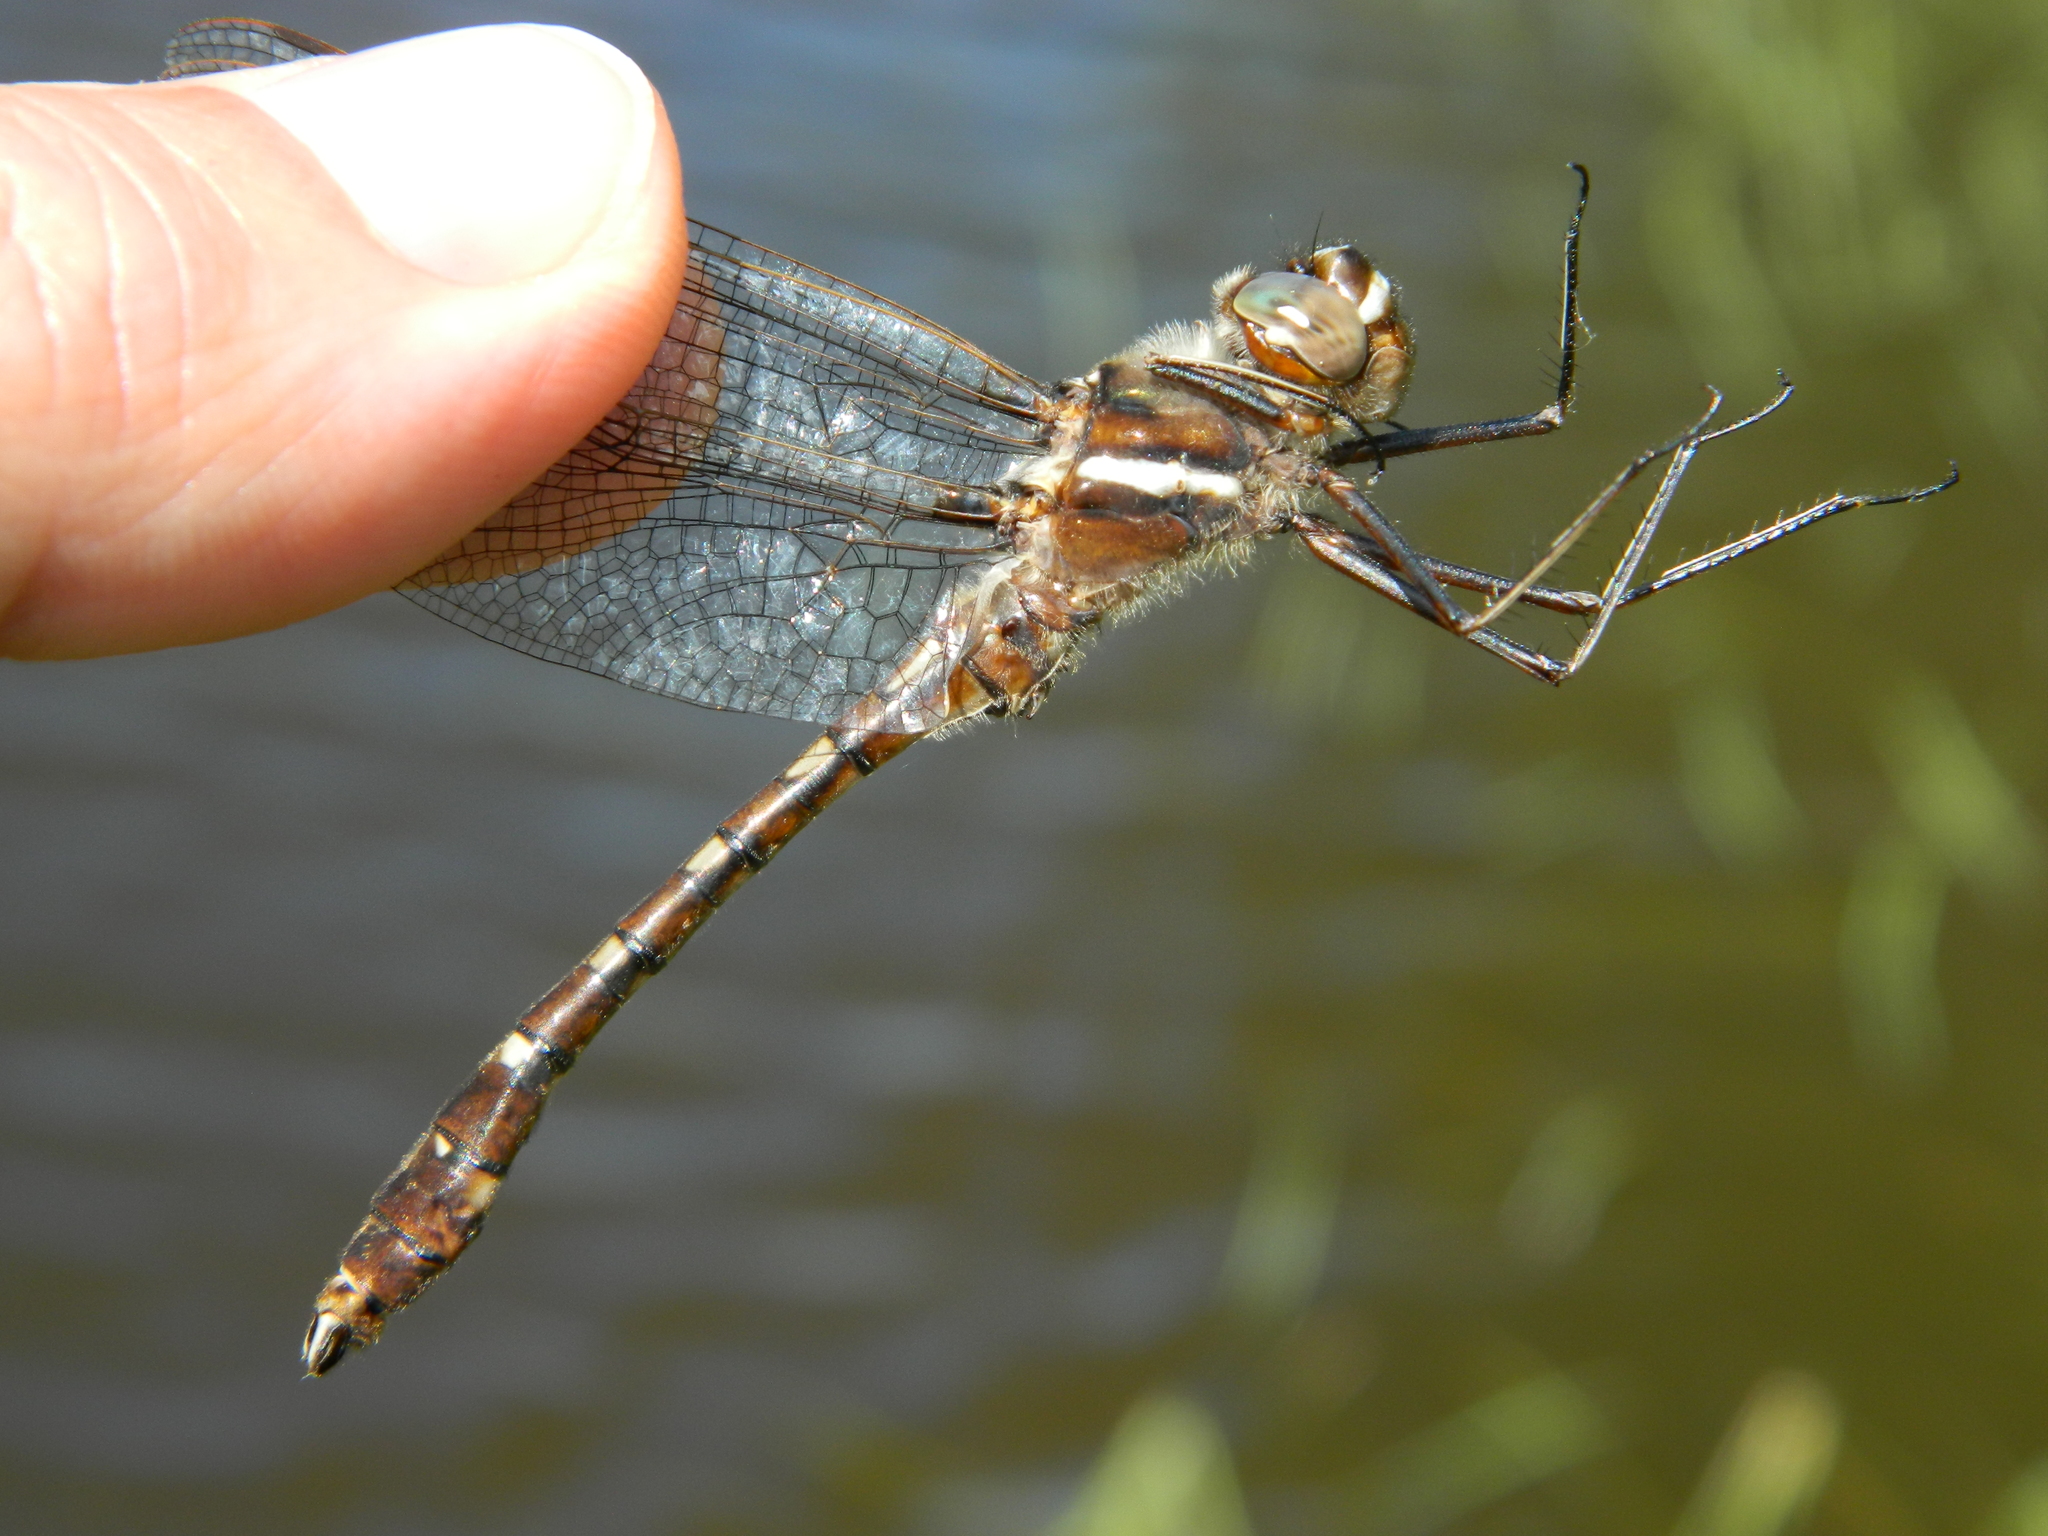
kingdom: Animalia
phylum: Arthropoda
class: Insecta
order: Odonata
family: Macromiidae
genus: Didymops
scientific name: Didymops transversa
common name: Stream cruiser
